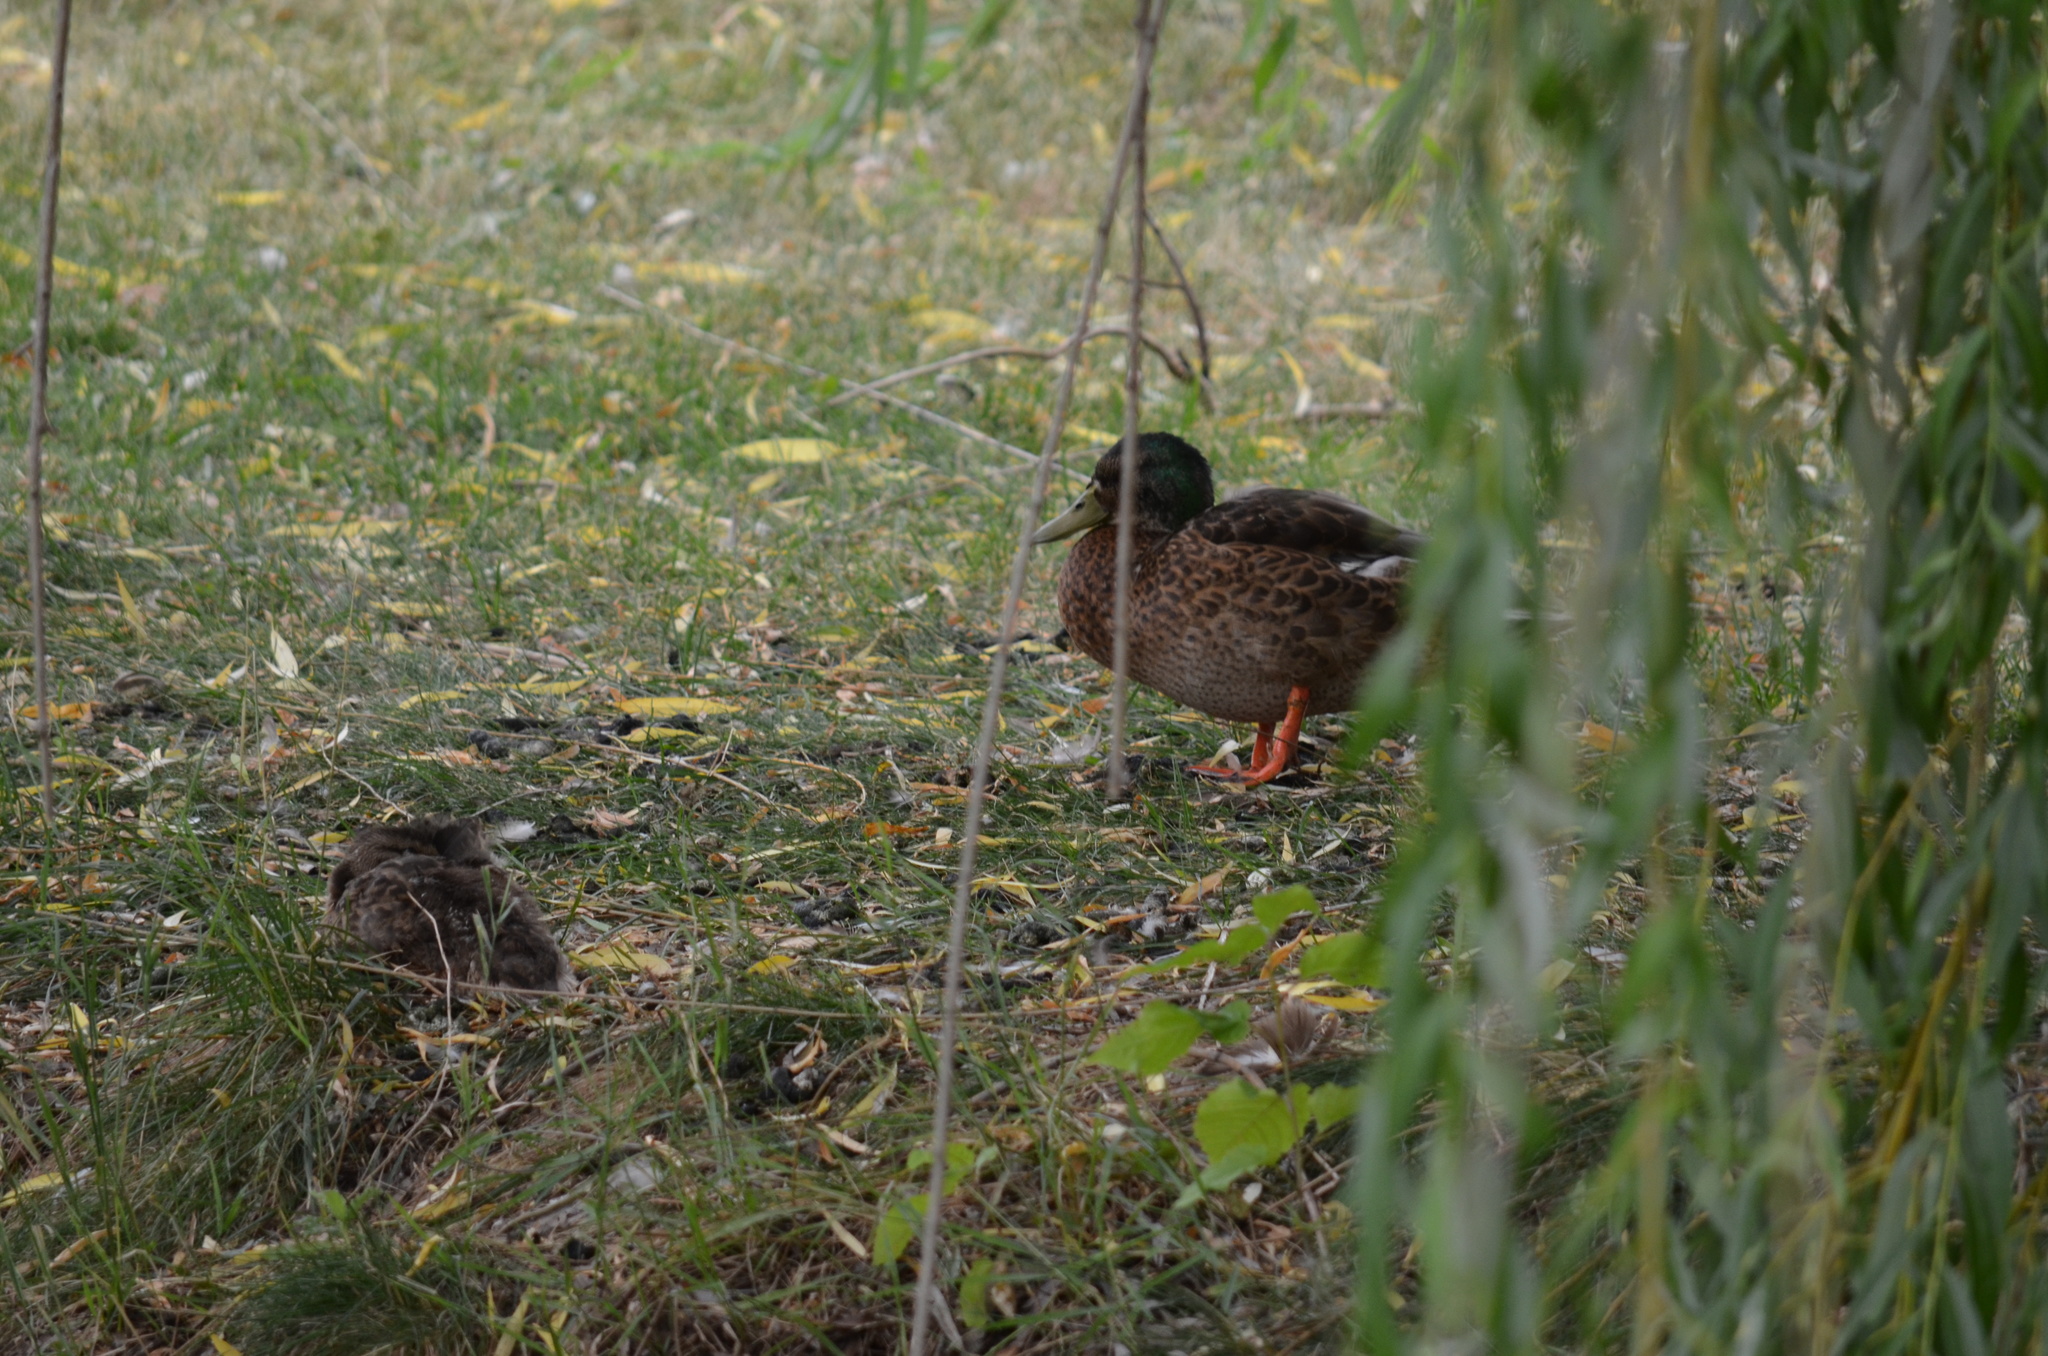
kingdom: Animalia
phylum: Chordata
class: Aves
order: Anseriformes
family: Anatidae
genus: Anas
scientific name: Anas platyrhynchos
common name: Mallard
